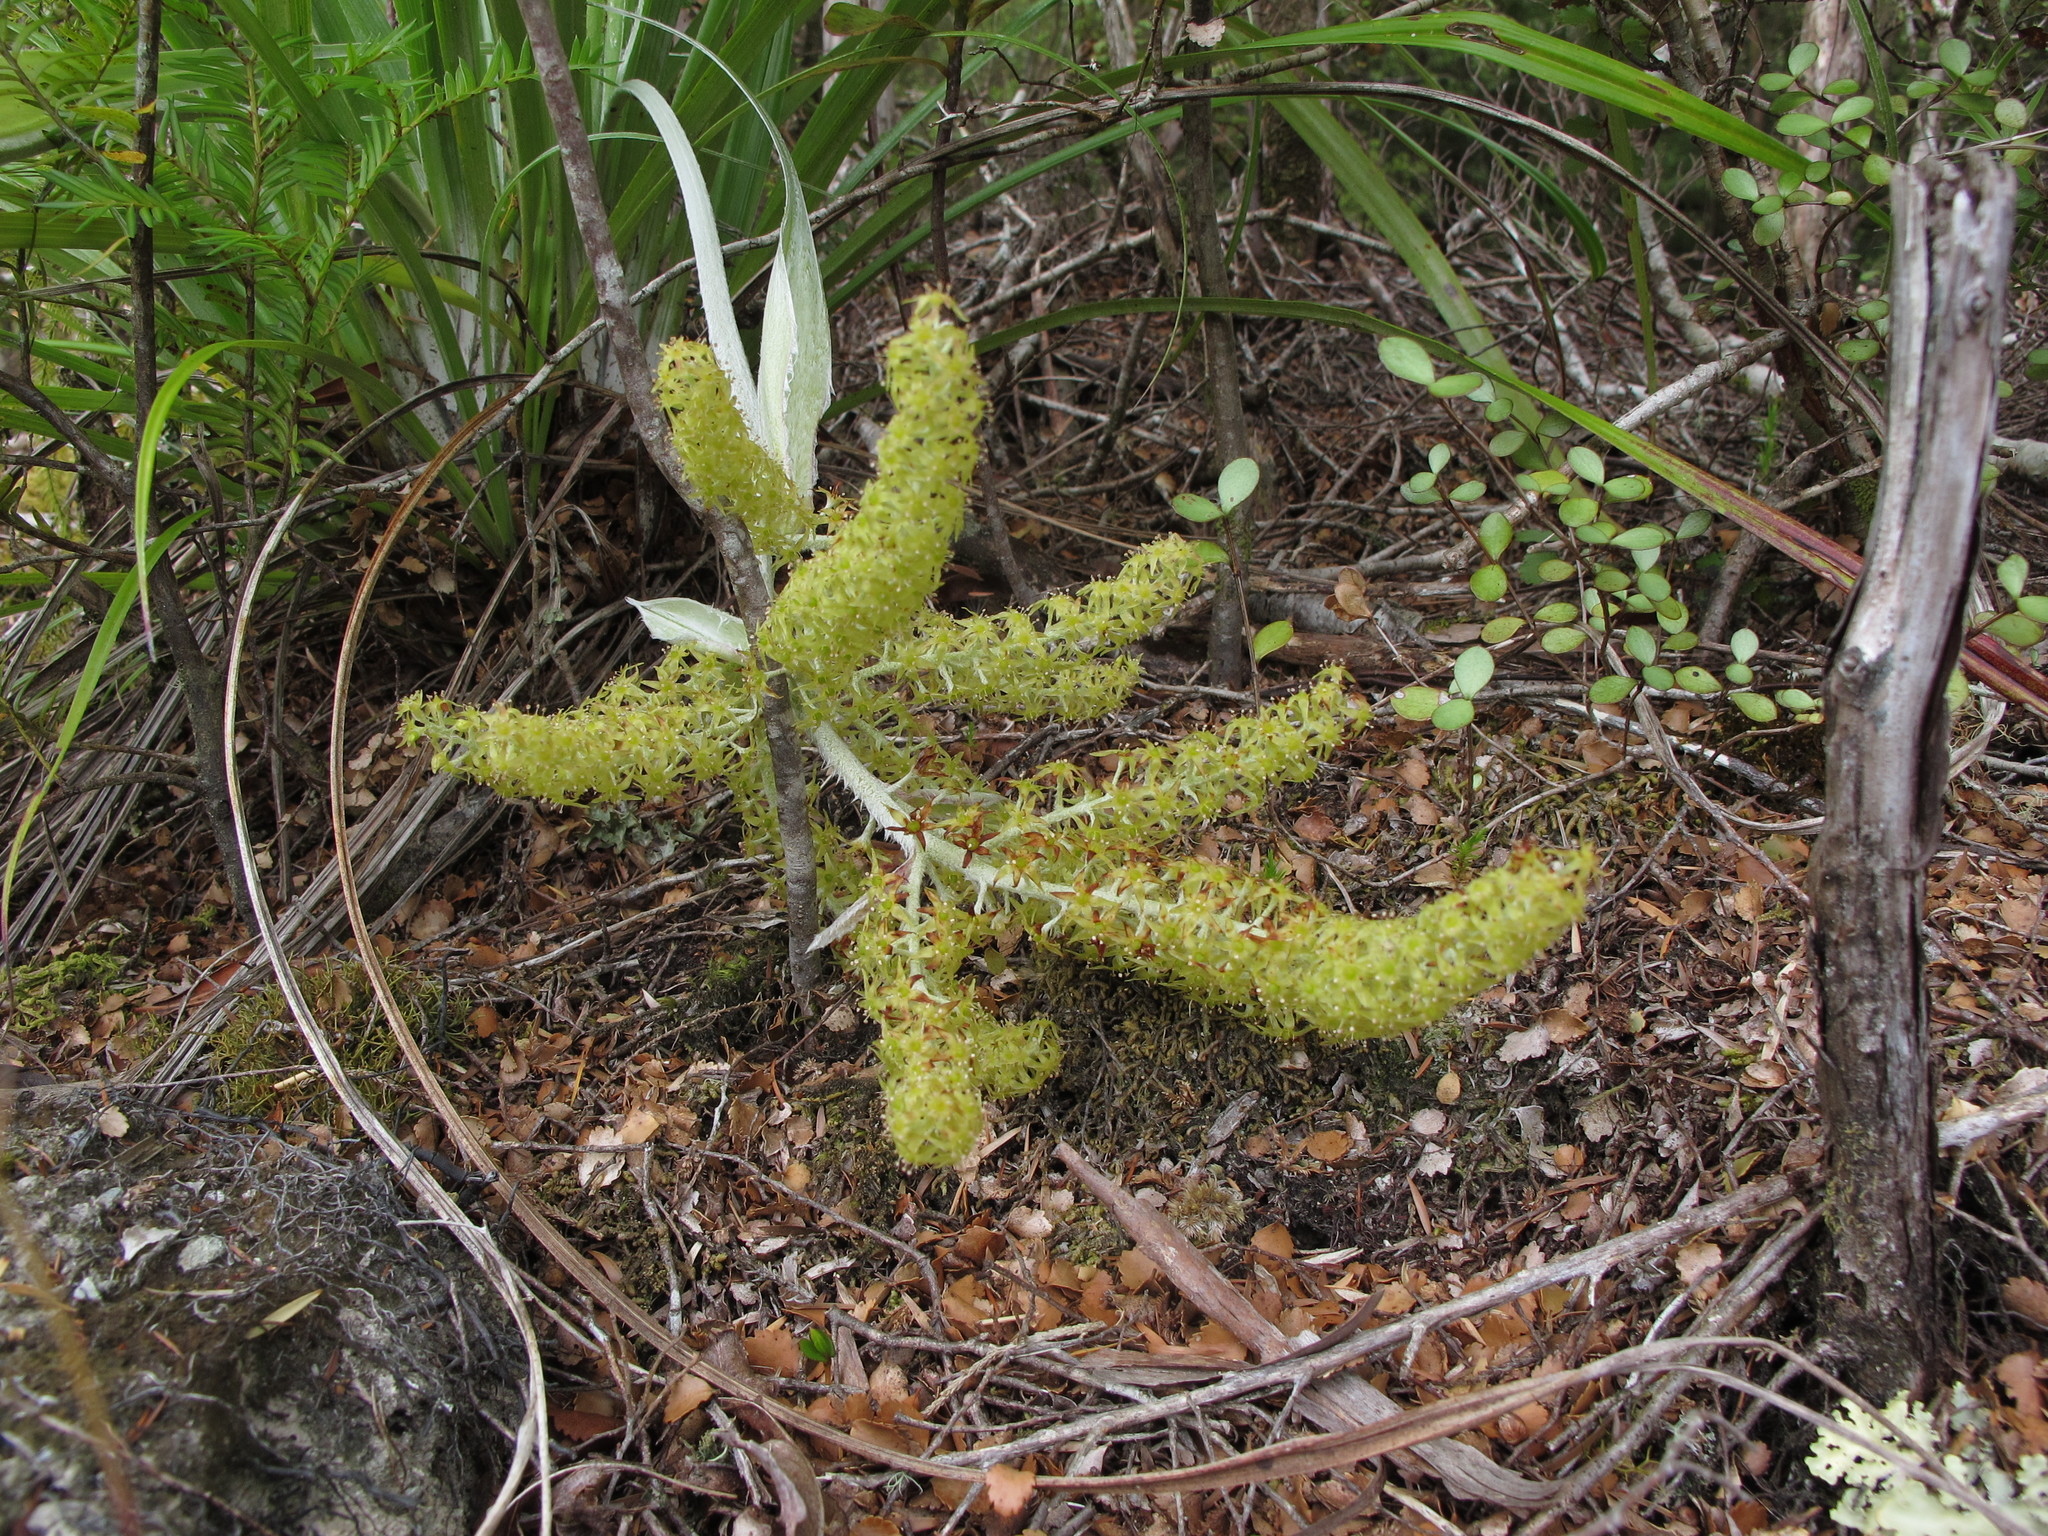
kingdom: Plantae
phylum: Tracheophyta
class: Liliopsida
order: Asparagales
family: Asteliaceae
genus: Astelia
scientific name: Astelia solandri
